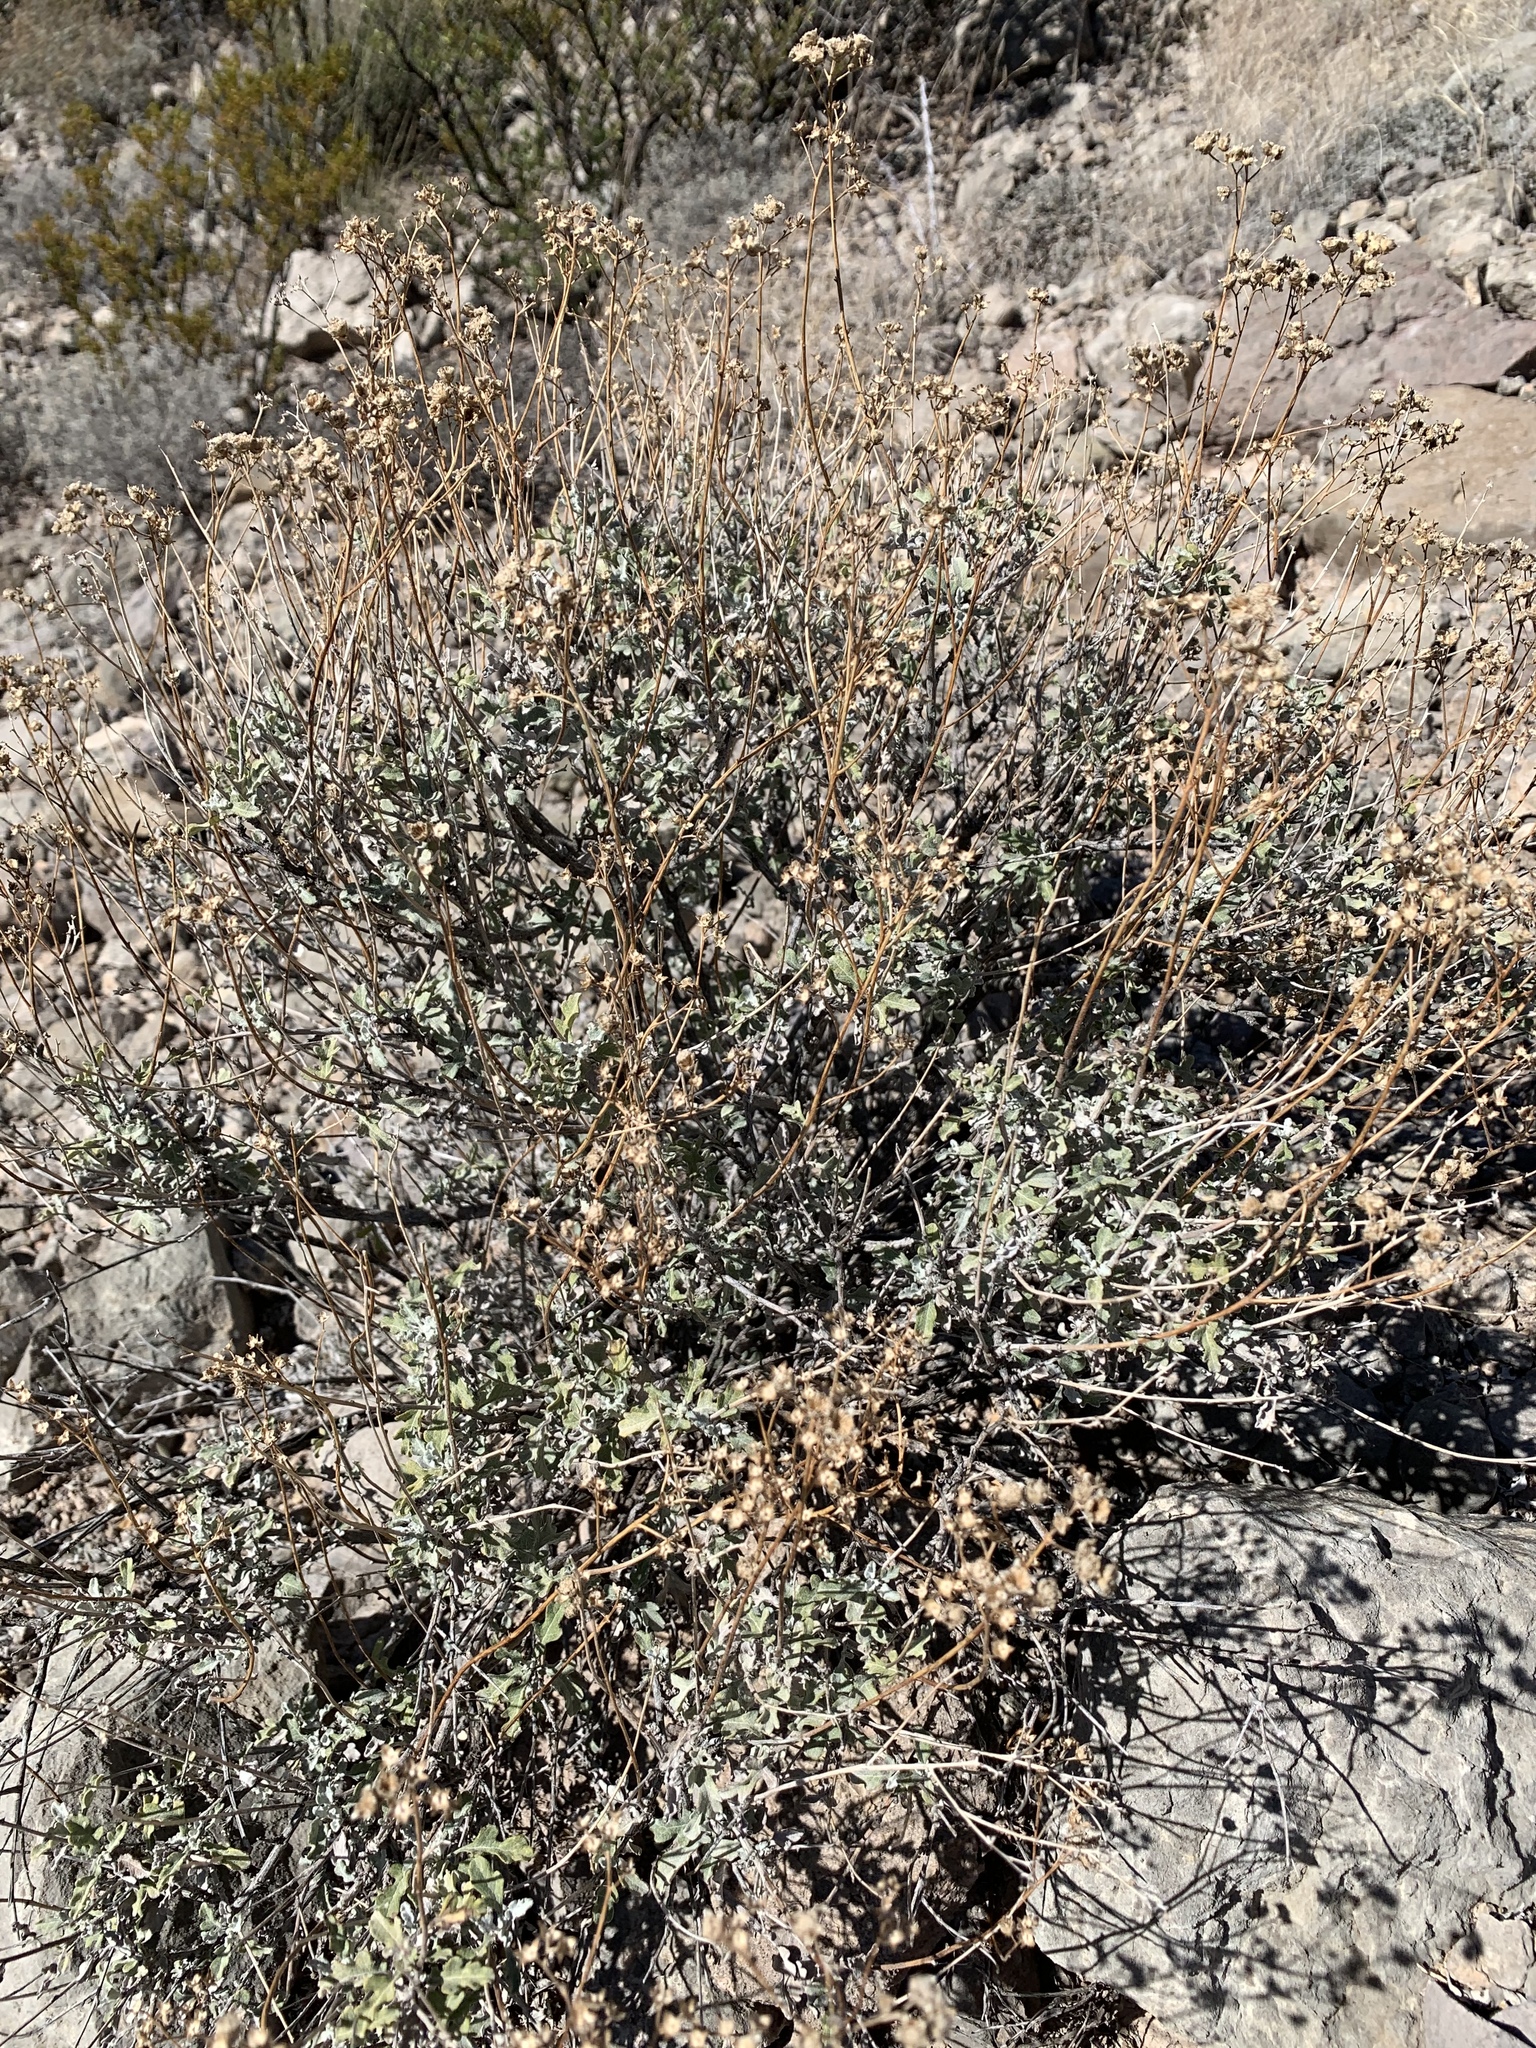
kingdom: Plantae
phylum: Tracheophyta
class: Magnoliopsida
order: Asterales
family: Asteraceae
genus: Parthenium
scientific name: Parthenium incanum
